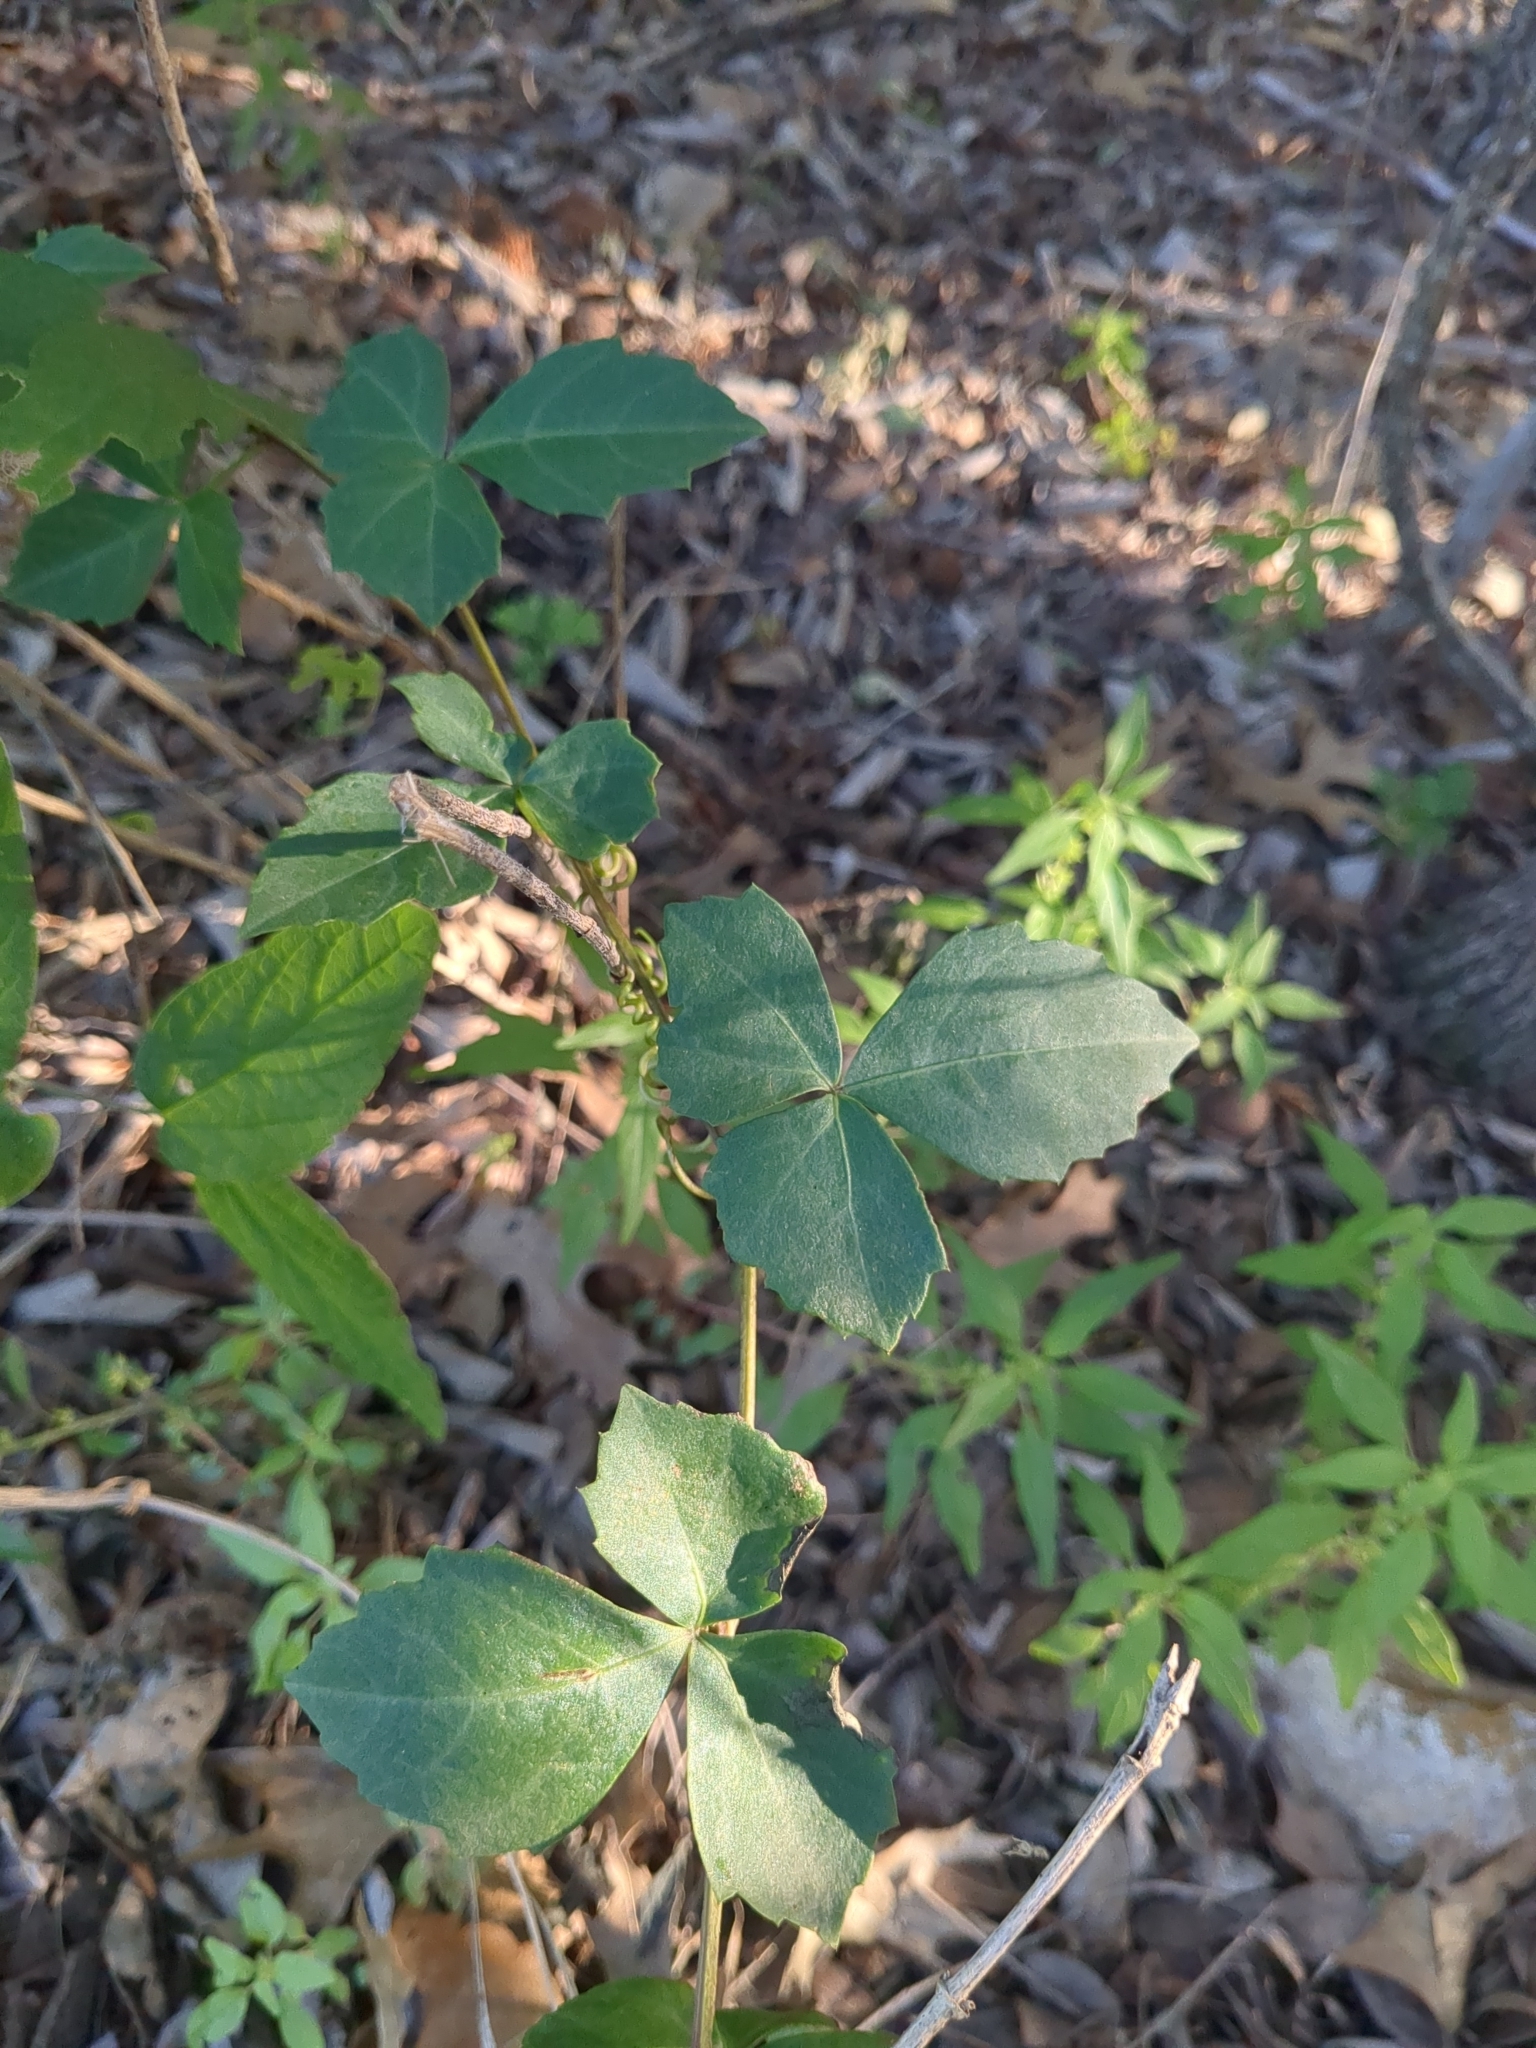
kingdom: Plantae
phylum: Tracheophyta
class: Magnoliopsida
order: Vitales
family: Vitaceae
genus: Cissus
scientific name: Cissus trifoliata
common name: Vine-sorrel
